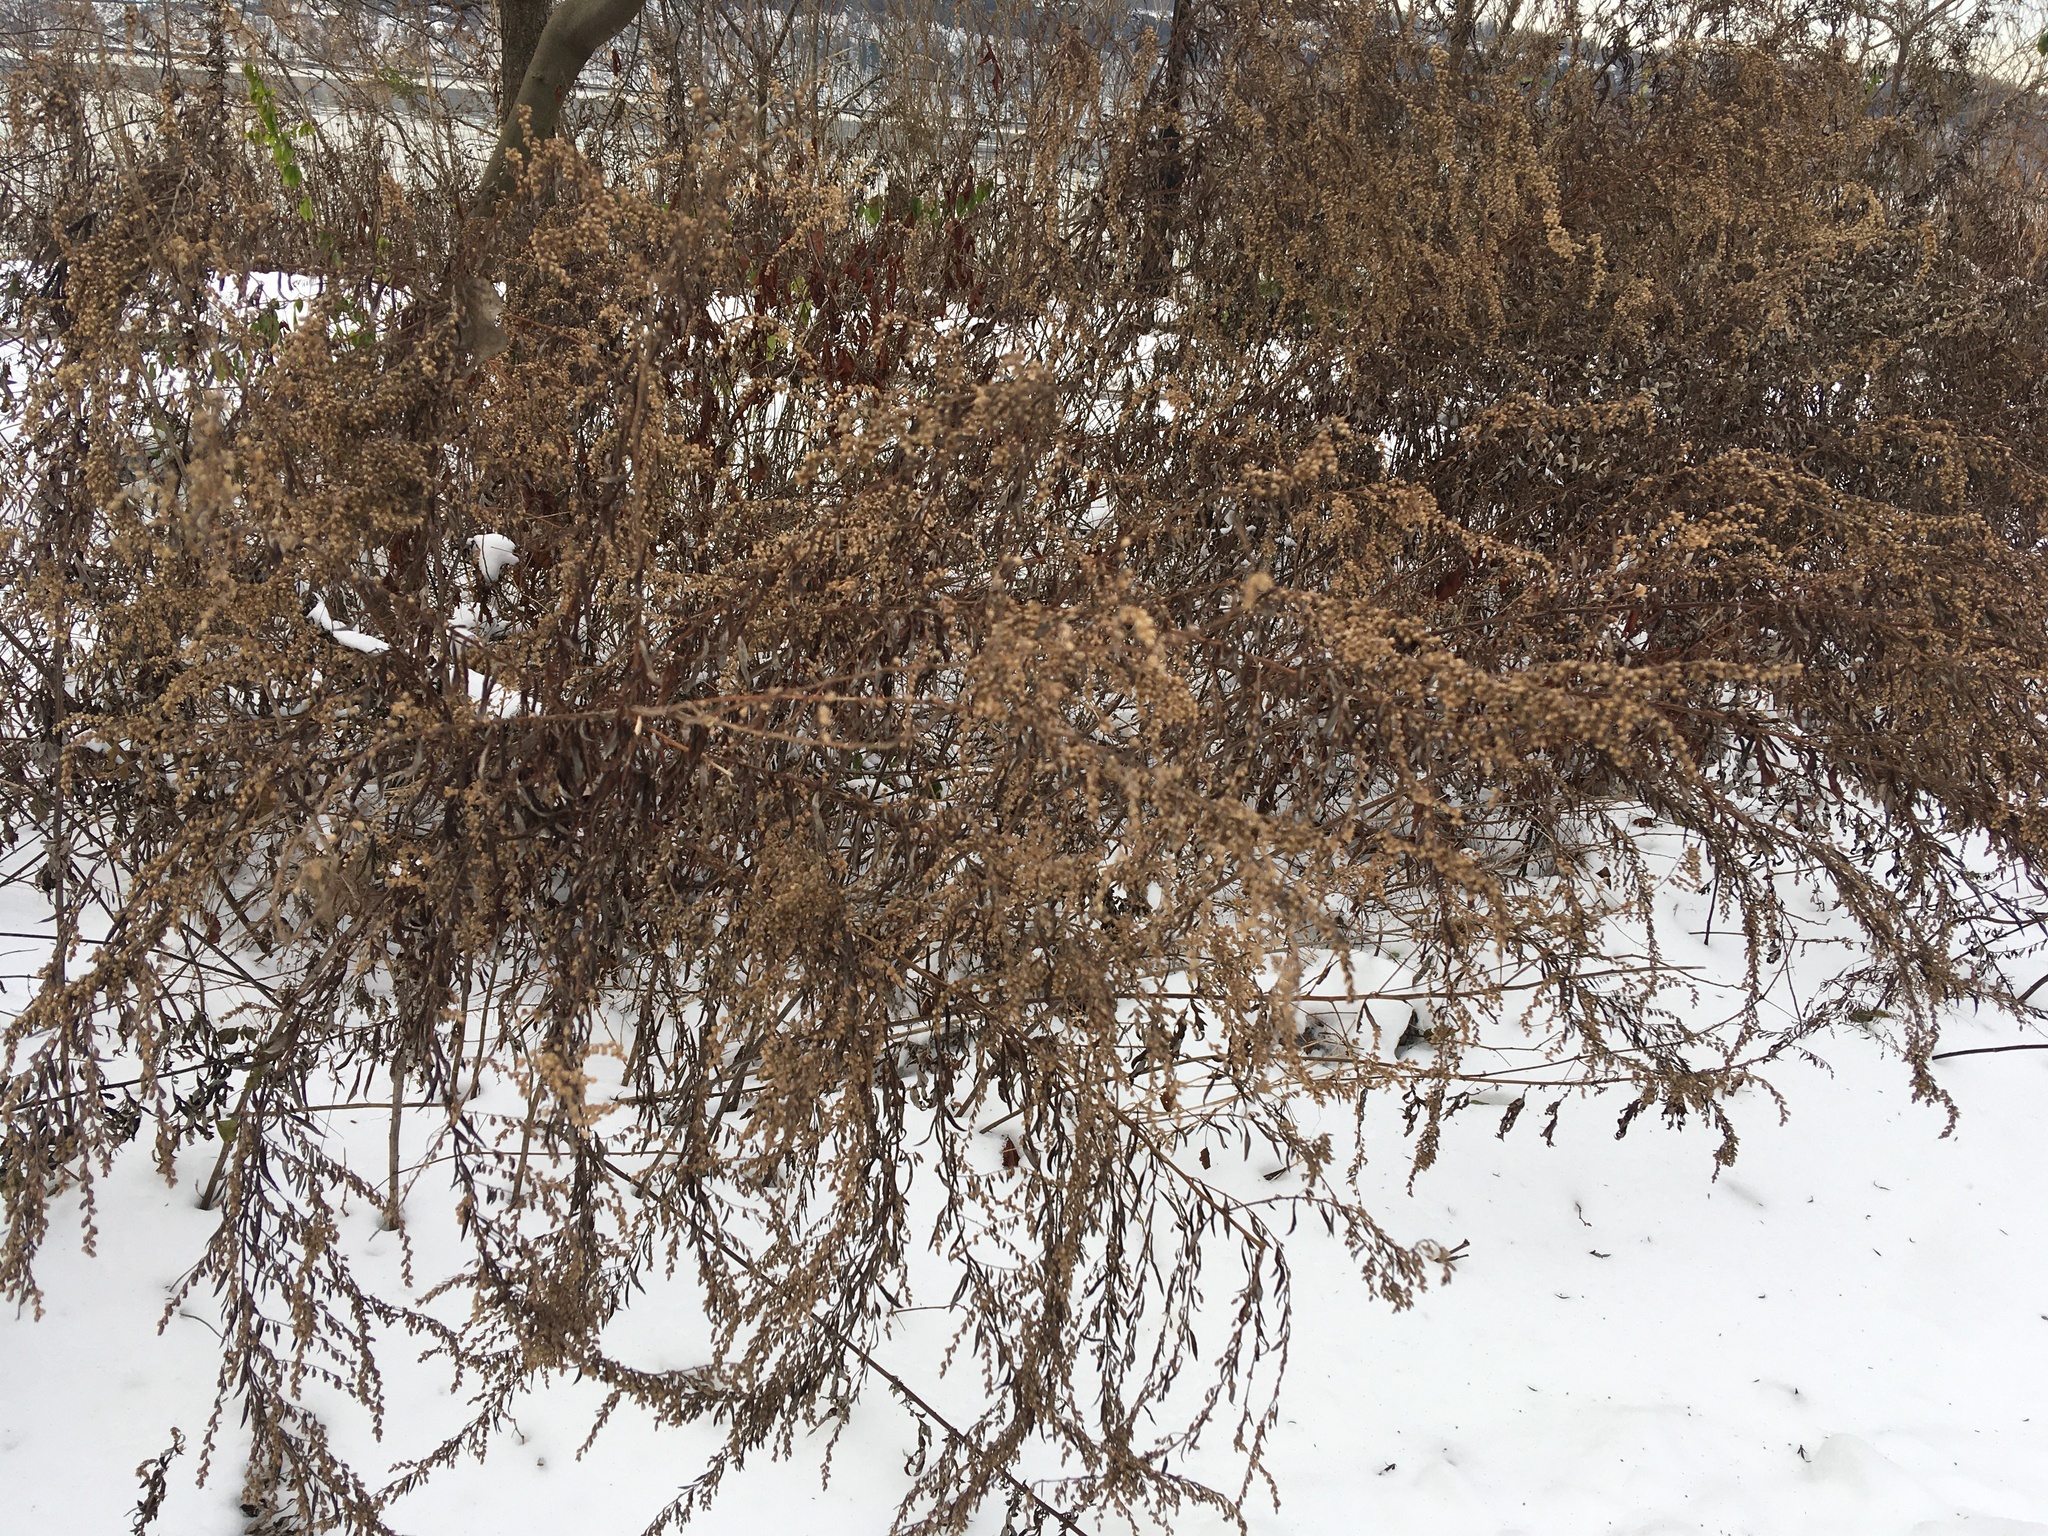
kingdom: Plantae
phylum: Tracheophyta
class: Magnoliopsida
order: Asterales
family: Asteraceae
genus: Artemisia
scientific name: Artemisia vulgaris
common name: Mugwort
